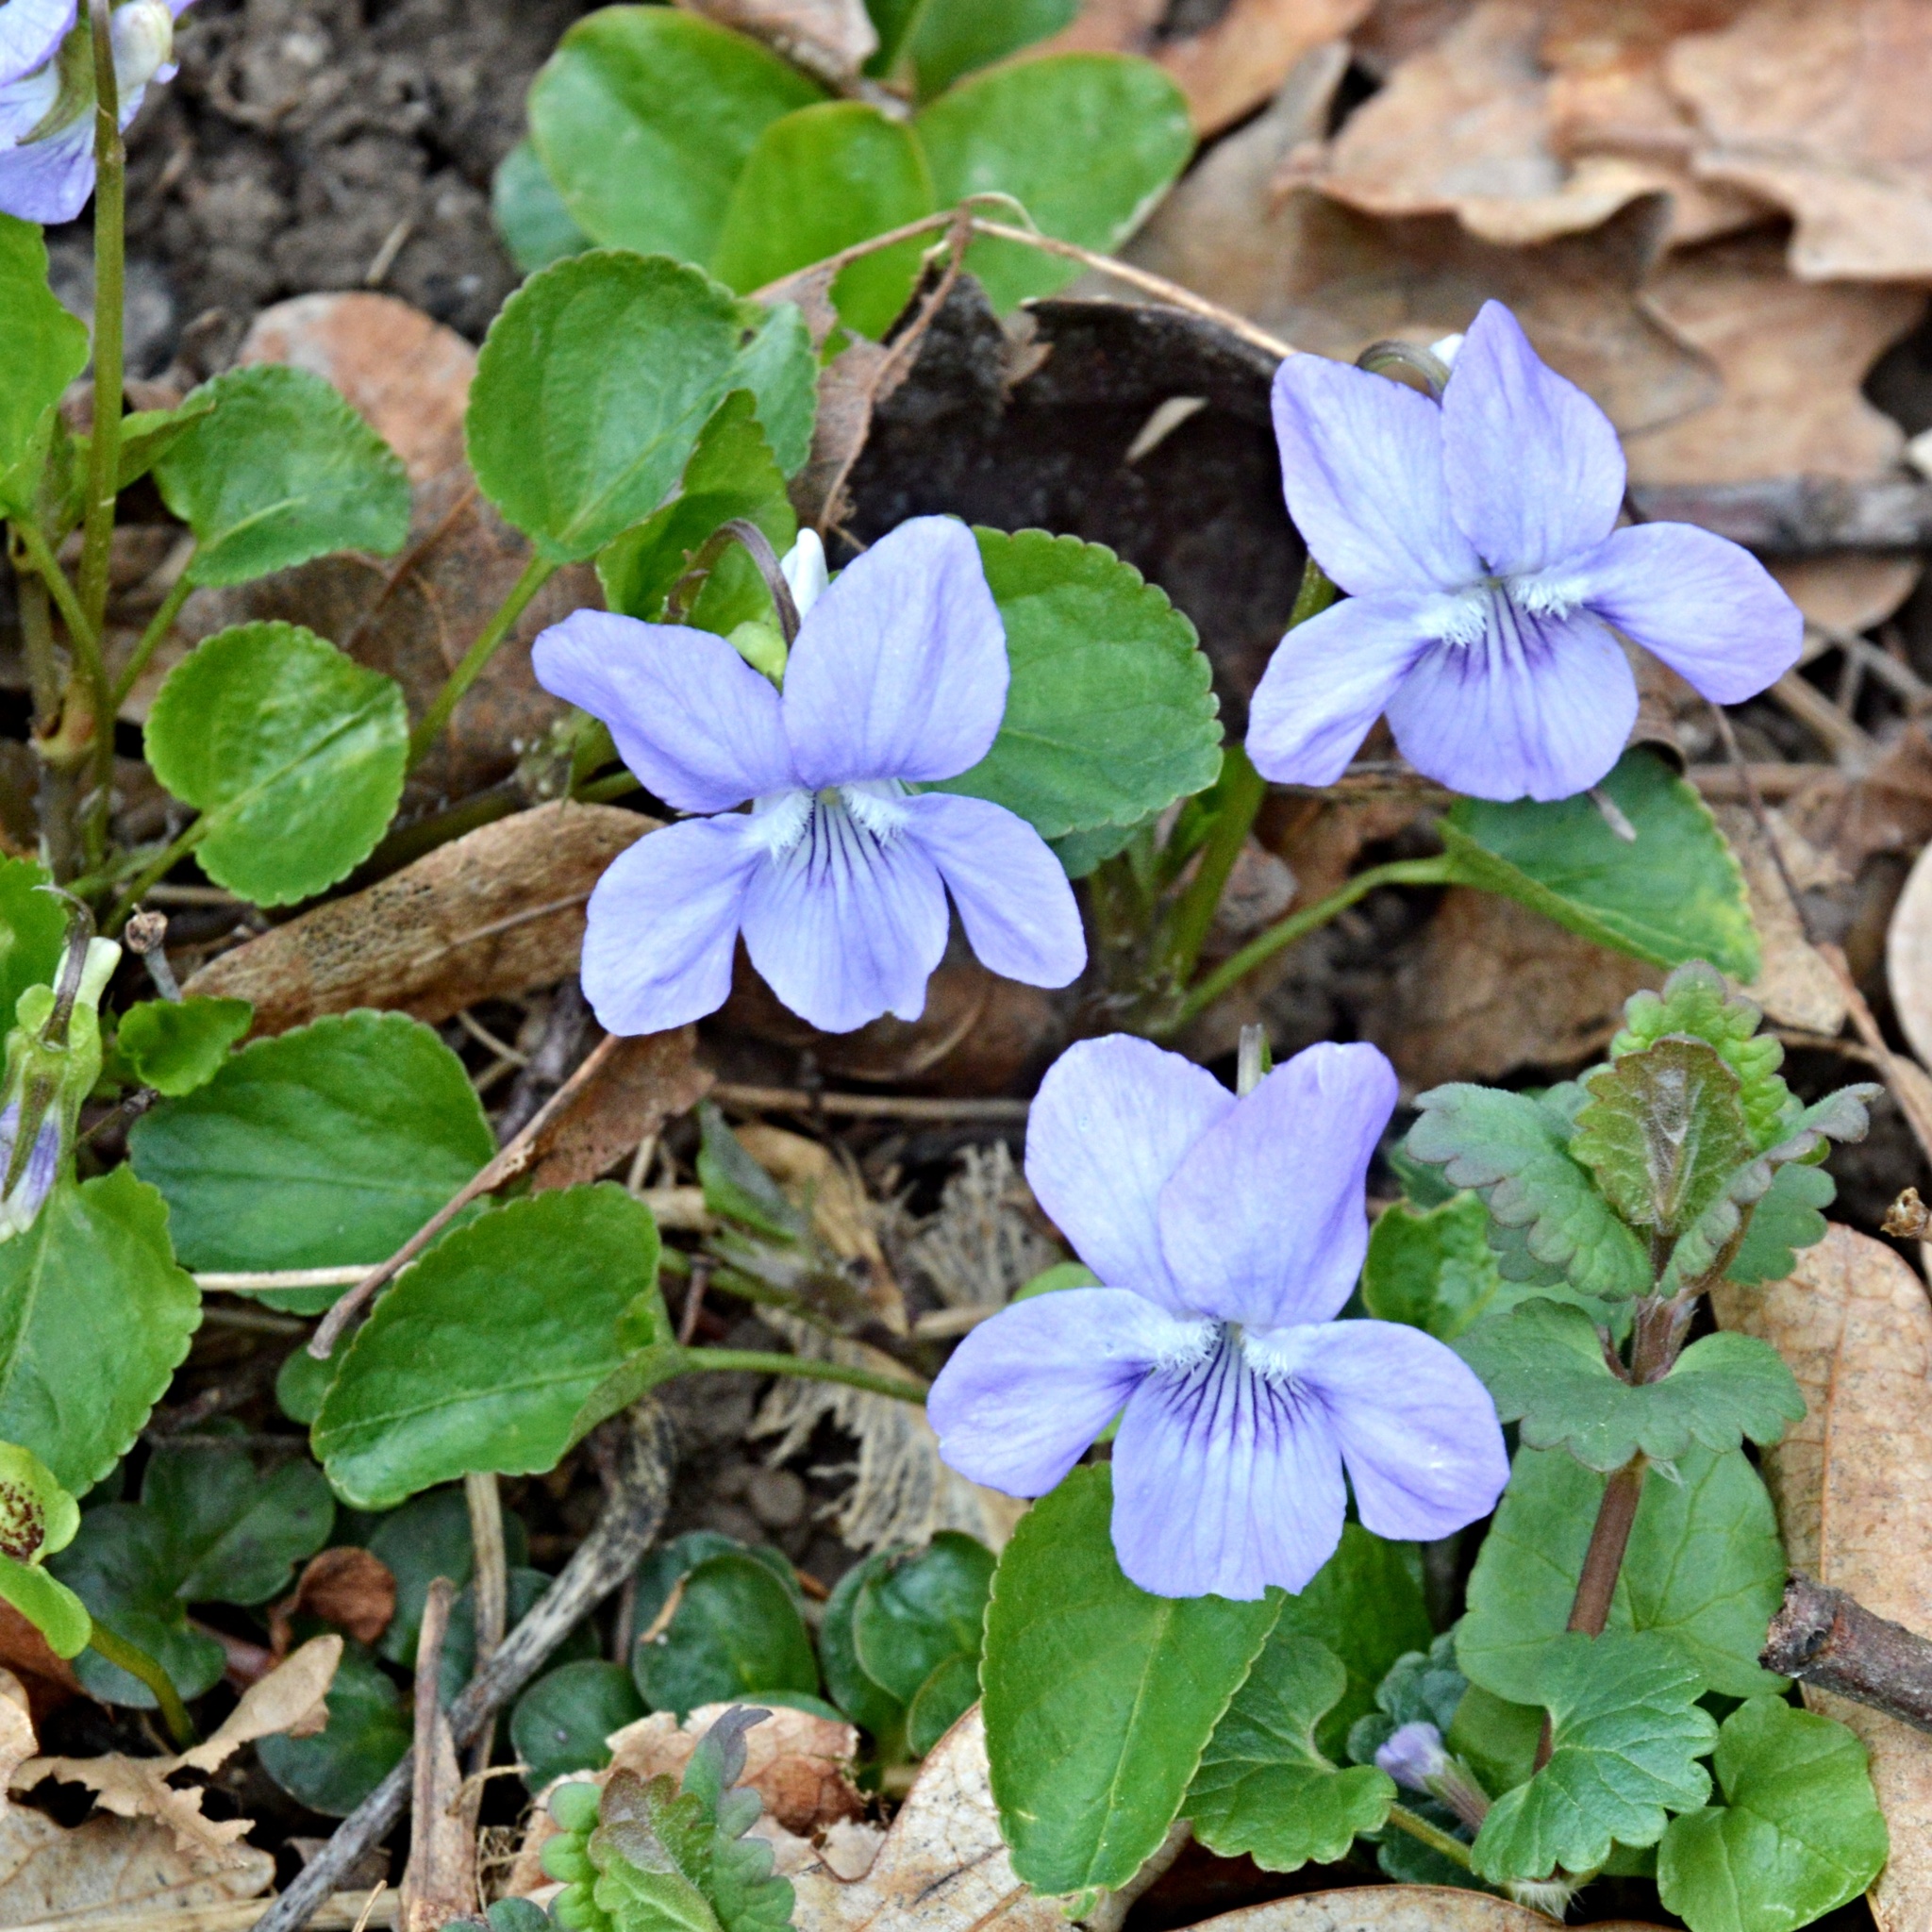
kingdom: Plantae
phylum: Tracheophyta
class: Magnoliopsida
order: Malpighiales
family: Violaceae
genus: Viola
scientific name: Viola riviniana
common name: Common dog-violet
